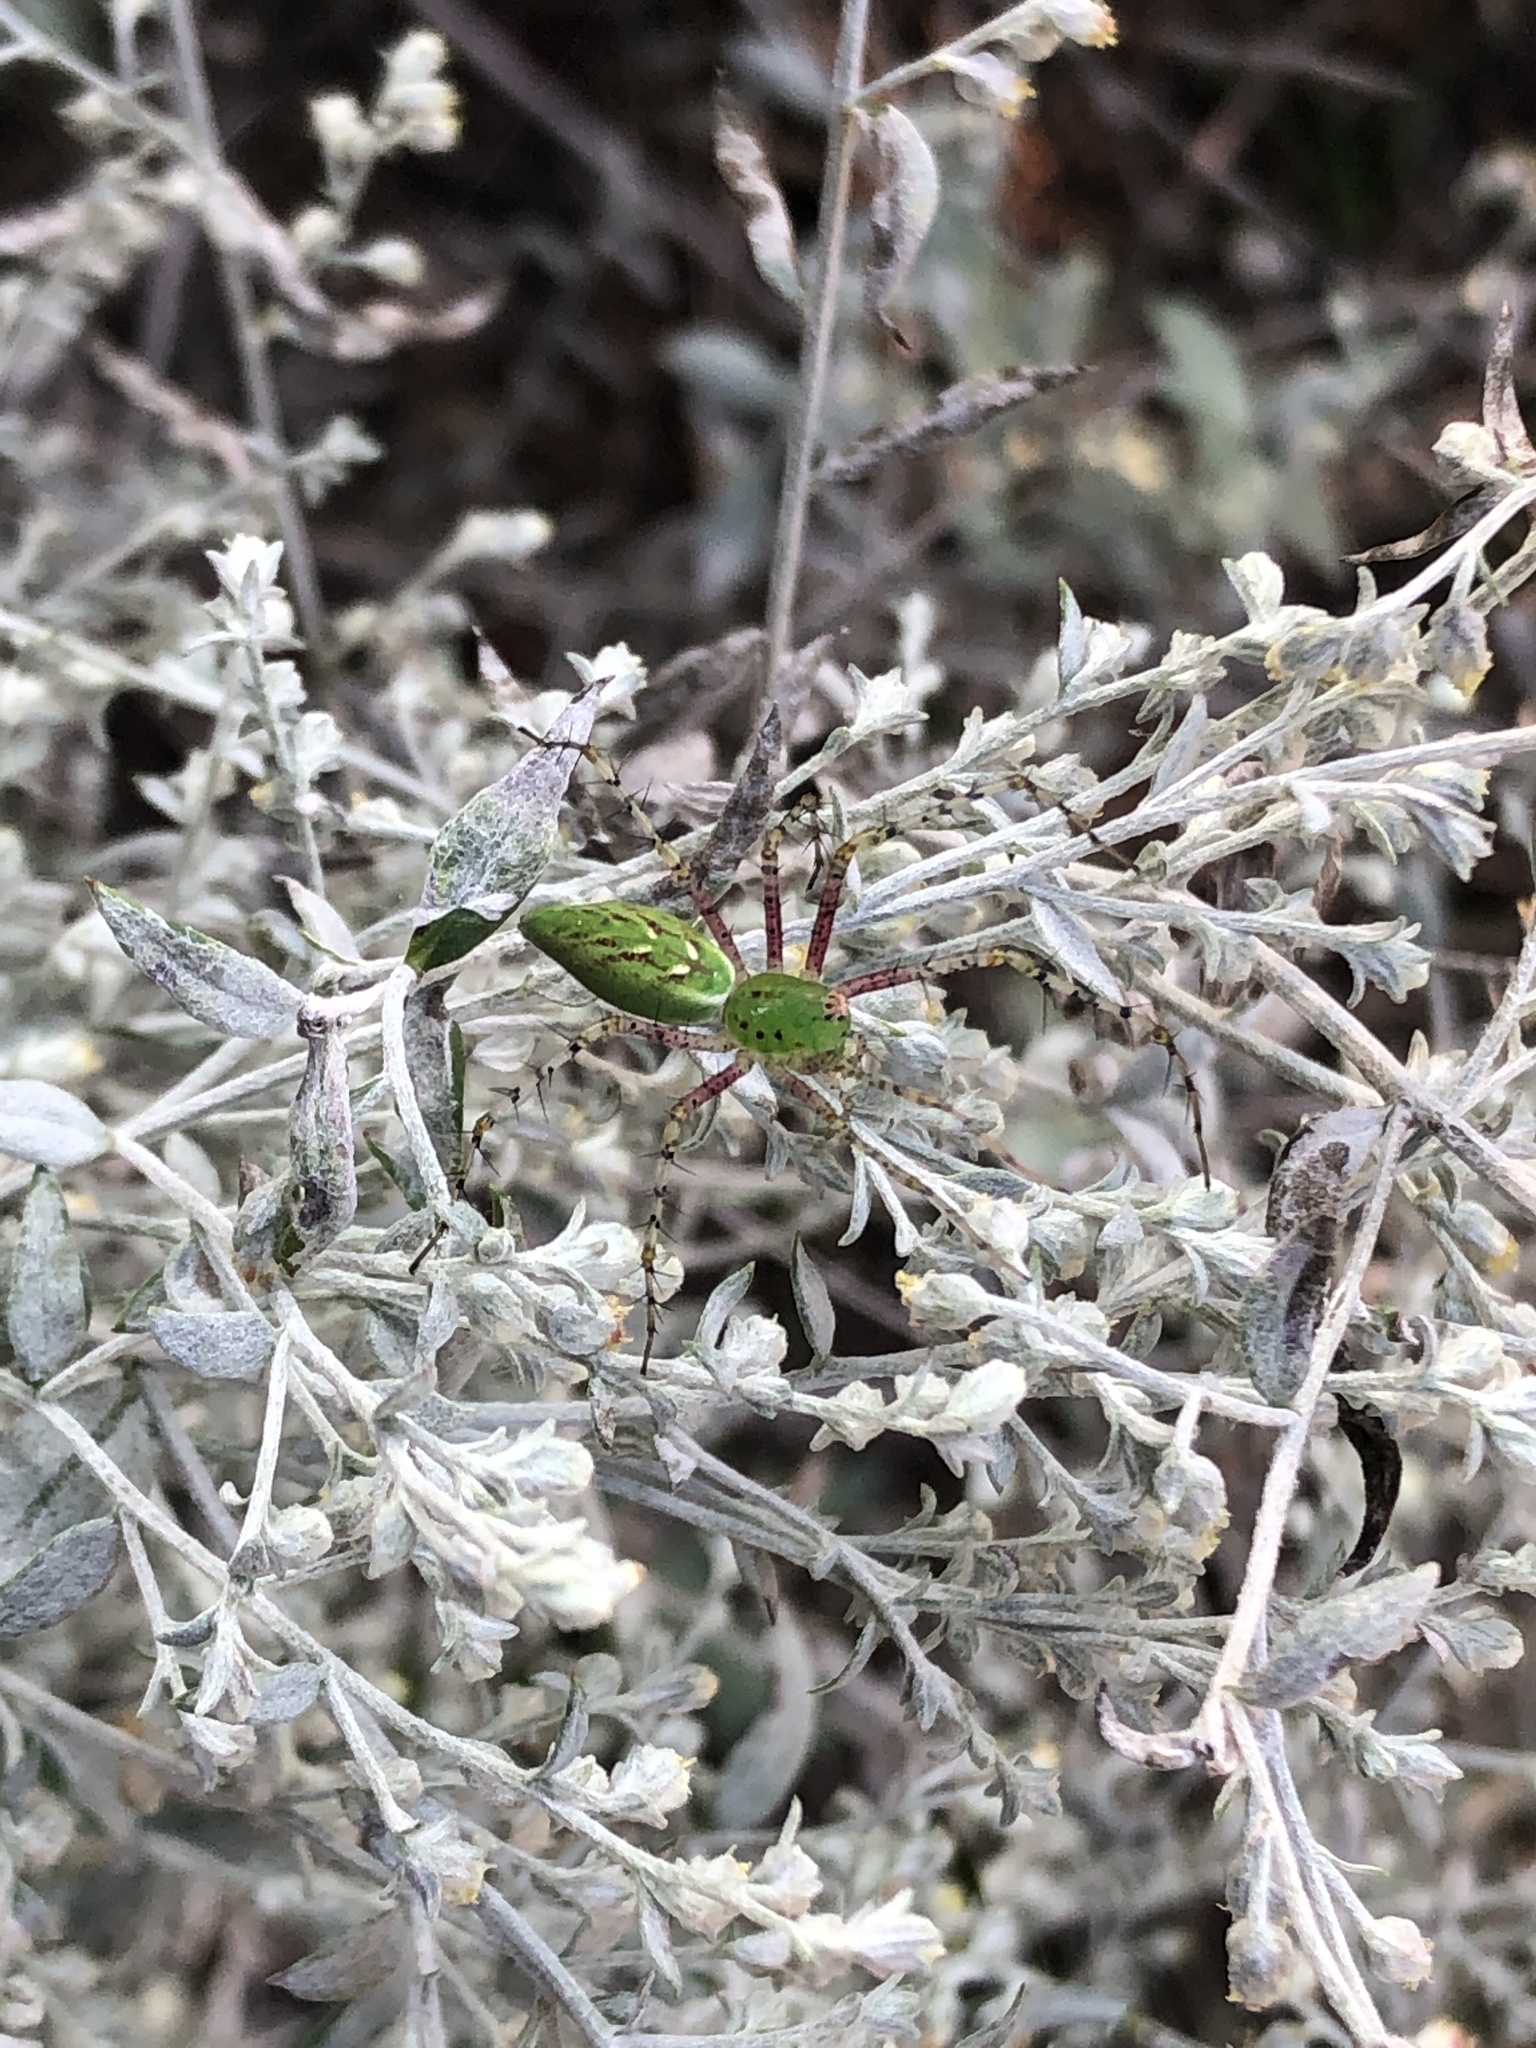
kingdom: Animalia
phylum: Arthropoda
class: Arachnida
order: Araneae
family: Oxyopidae
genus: Peucetia
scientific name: Peucetia viridans
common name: Lynx spiders
